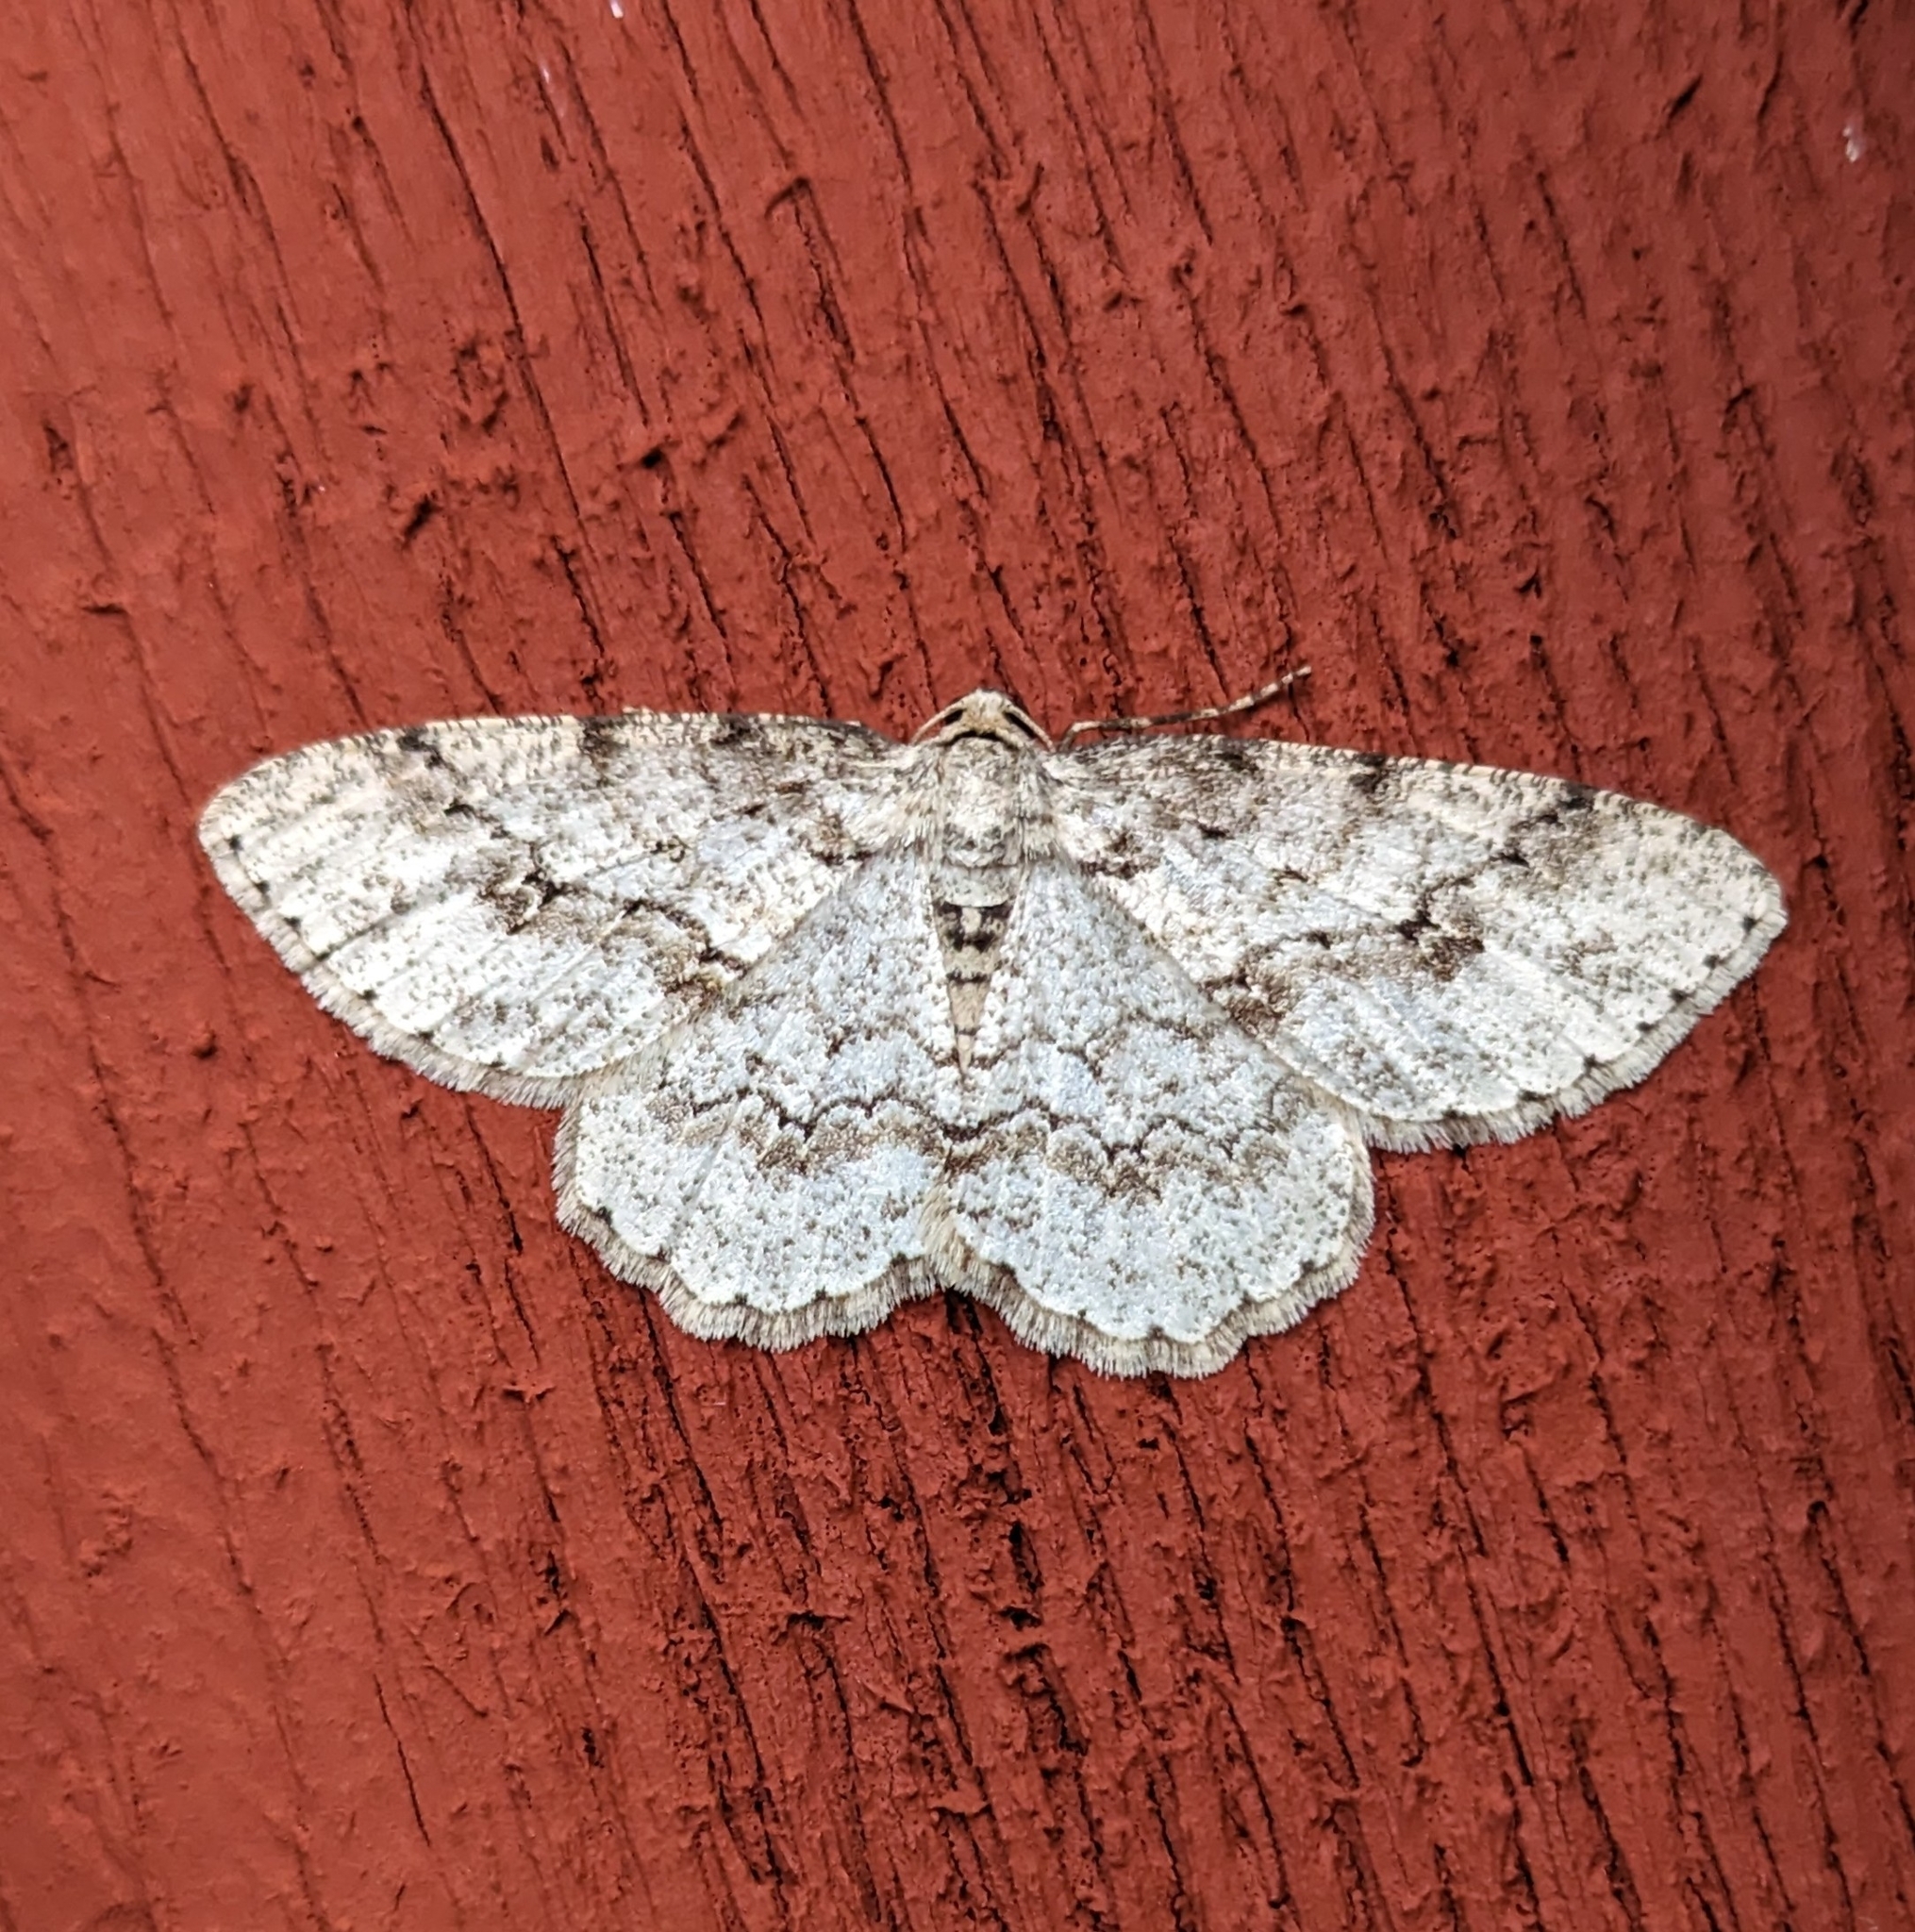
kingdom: Animalia
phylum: Arthropoda
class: Insecta
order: Lepidoptera
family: Geometridae
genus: Ectropis
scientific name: Ectropis crepuscularia
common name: Engrailed
